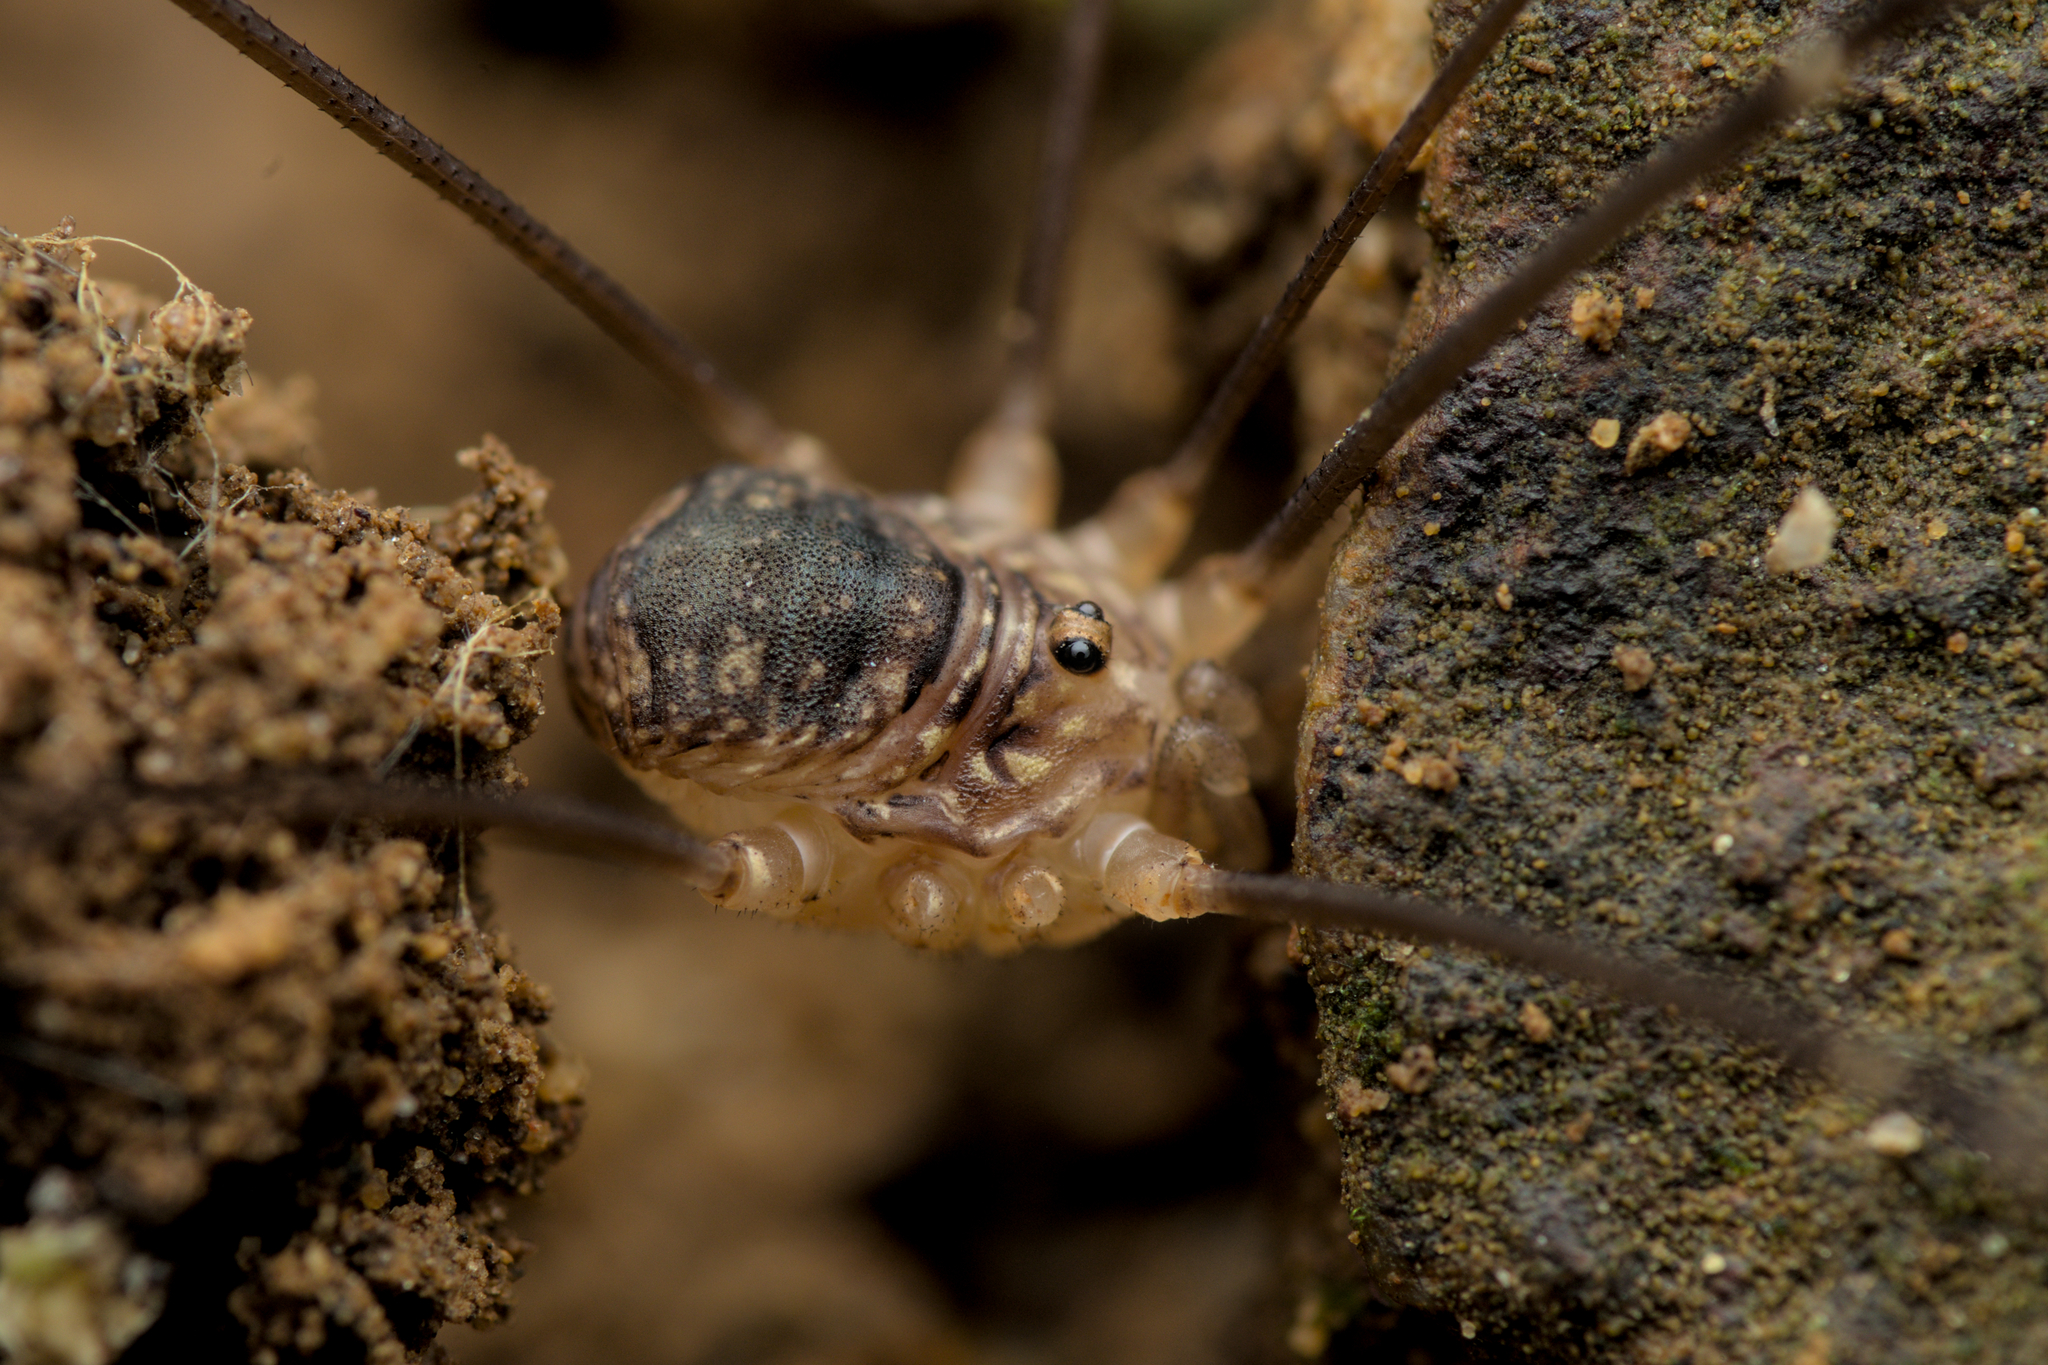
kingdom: Animalia
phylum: Arthropoda
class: Arachnida
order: Opiliones
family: Sclerosomatidae
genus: Nelima
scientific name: Nelima gothica
